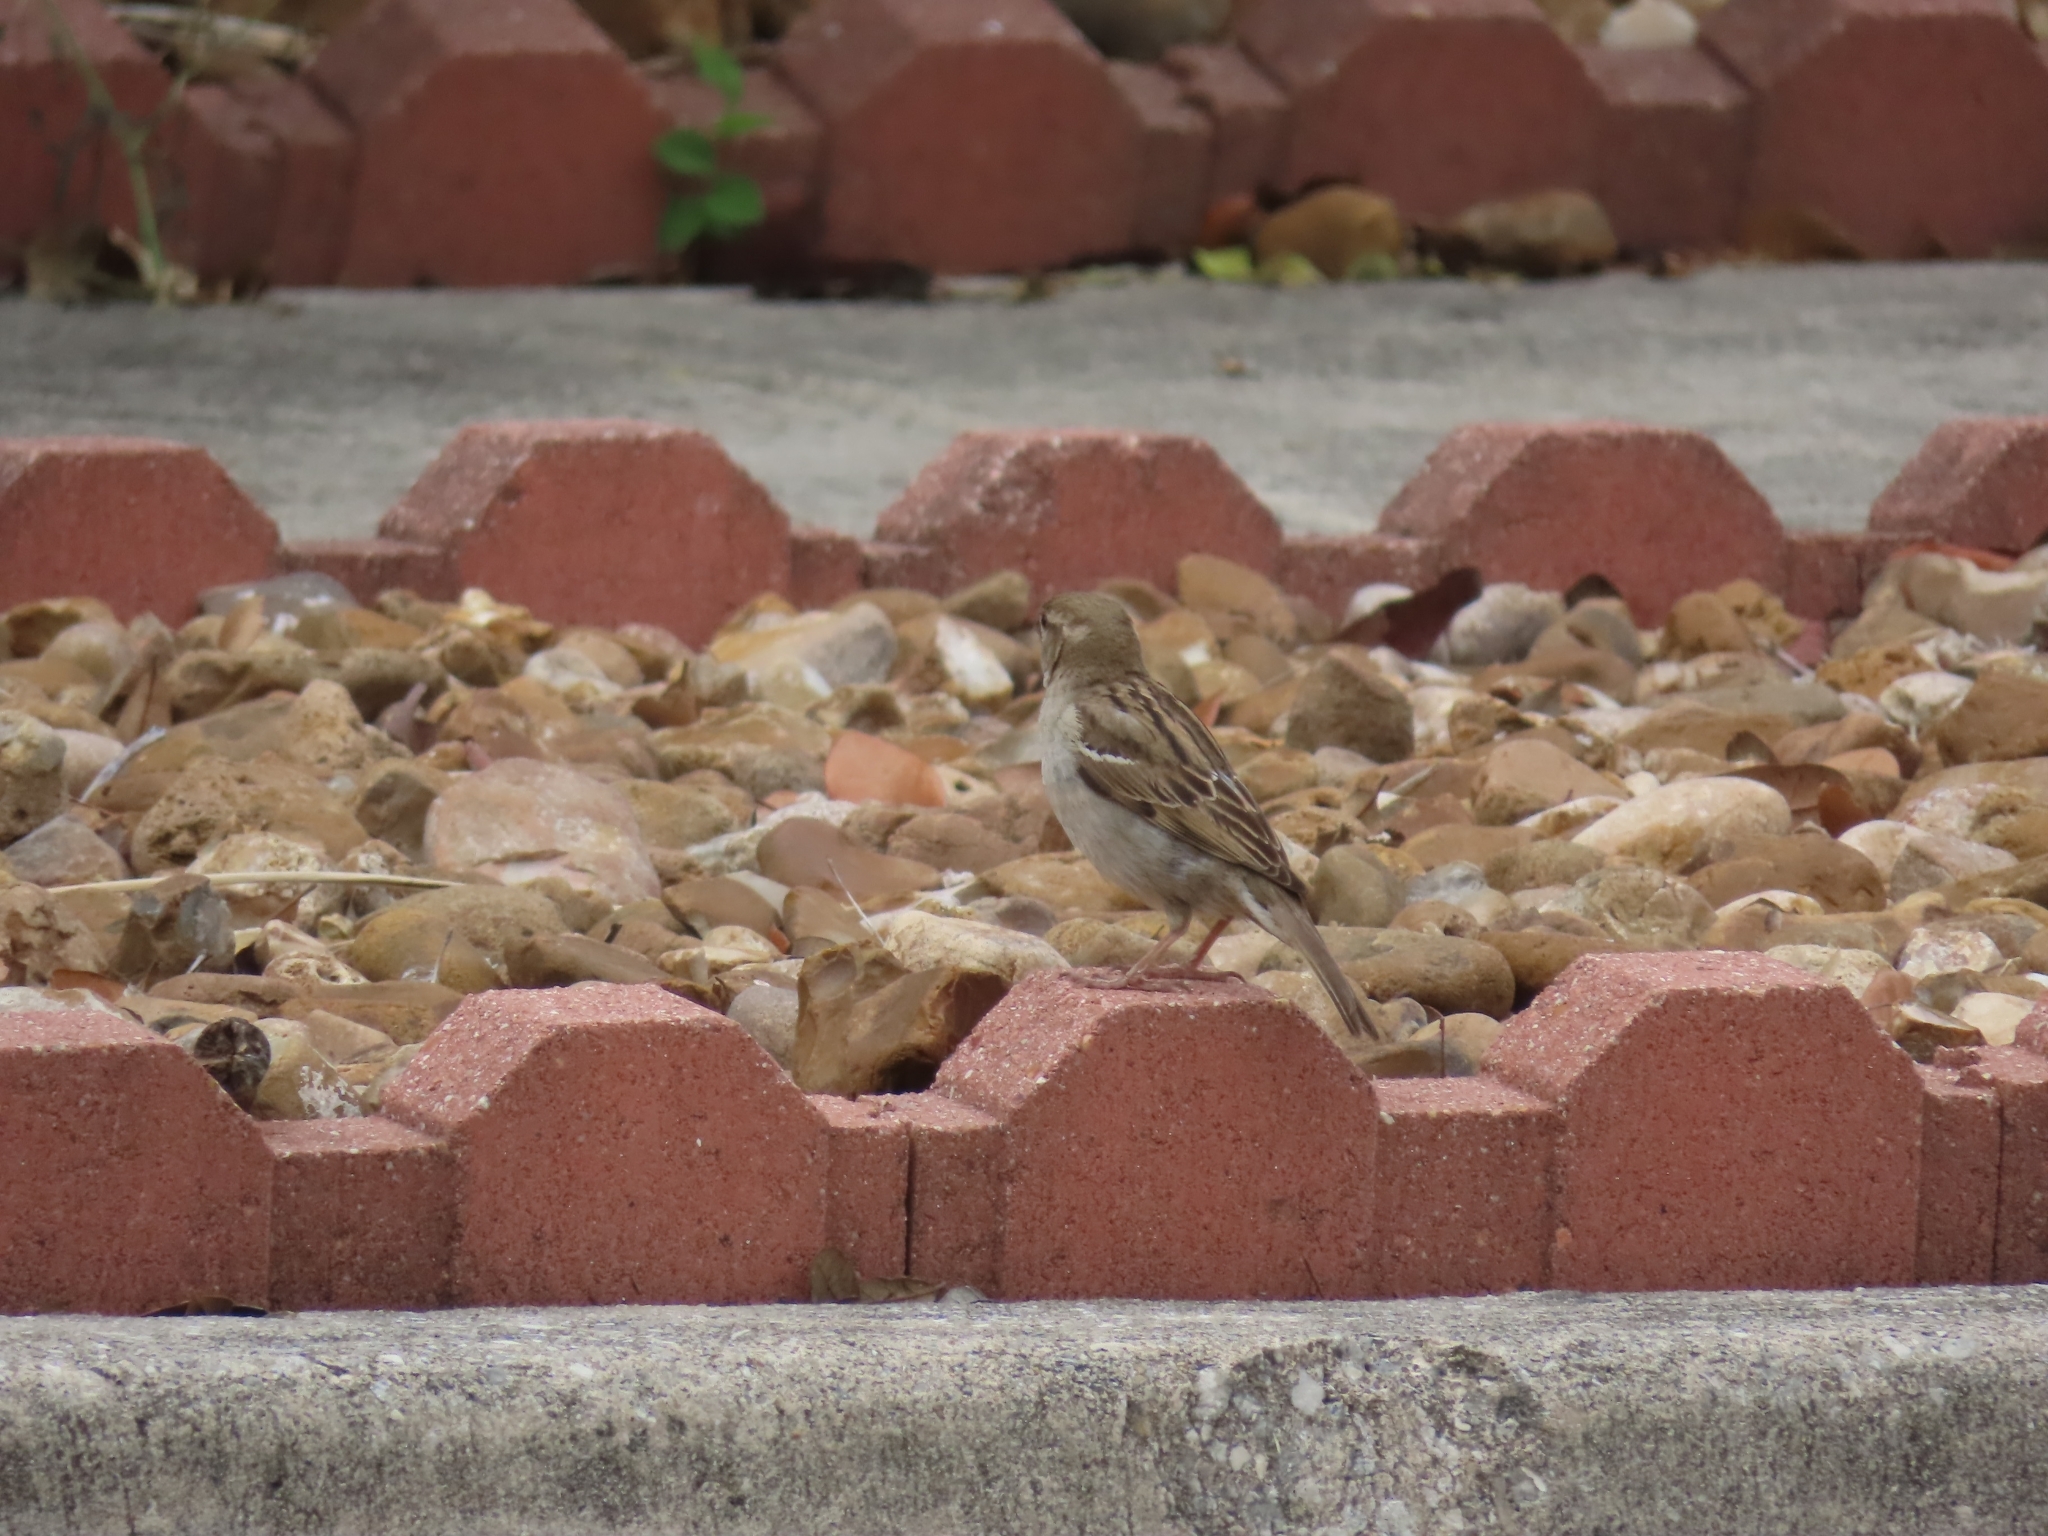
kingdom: Animalia
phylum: Chordata
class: Aves
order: Passeriformes
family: Passeridae
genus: Passer
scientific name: Passer domesticus
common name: House sparrow
